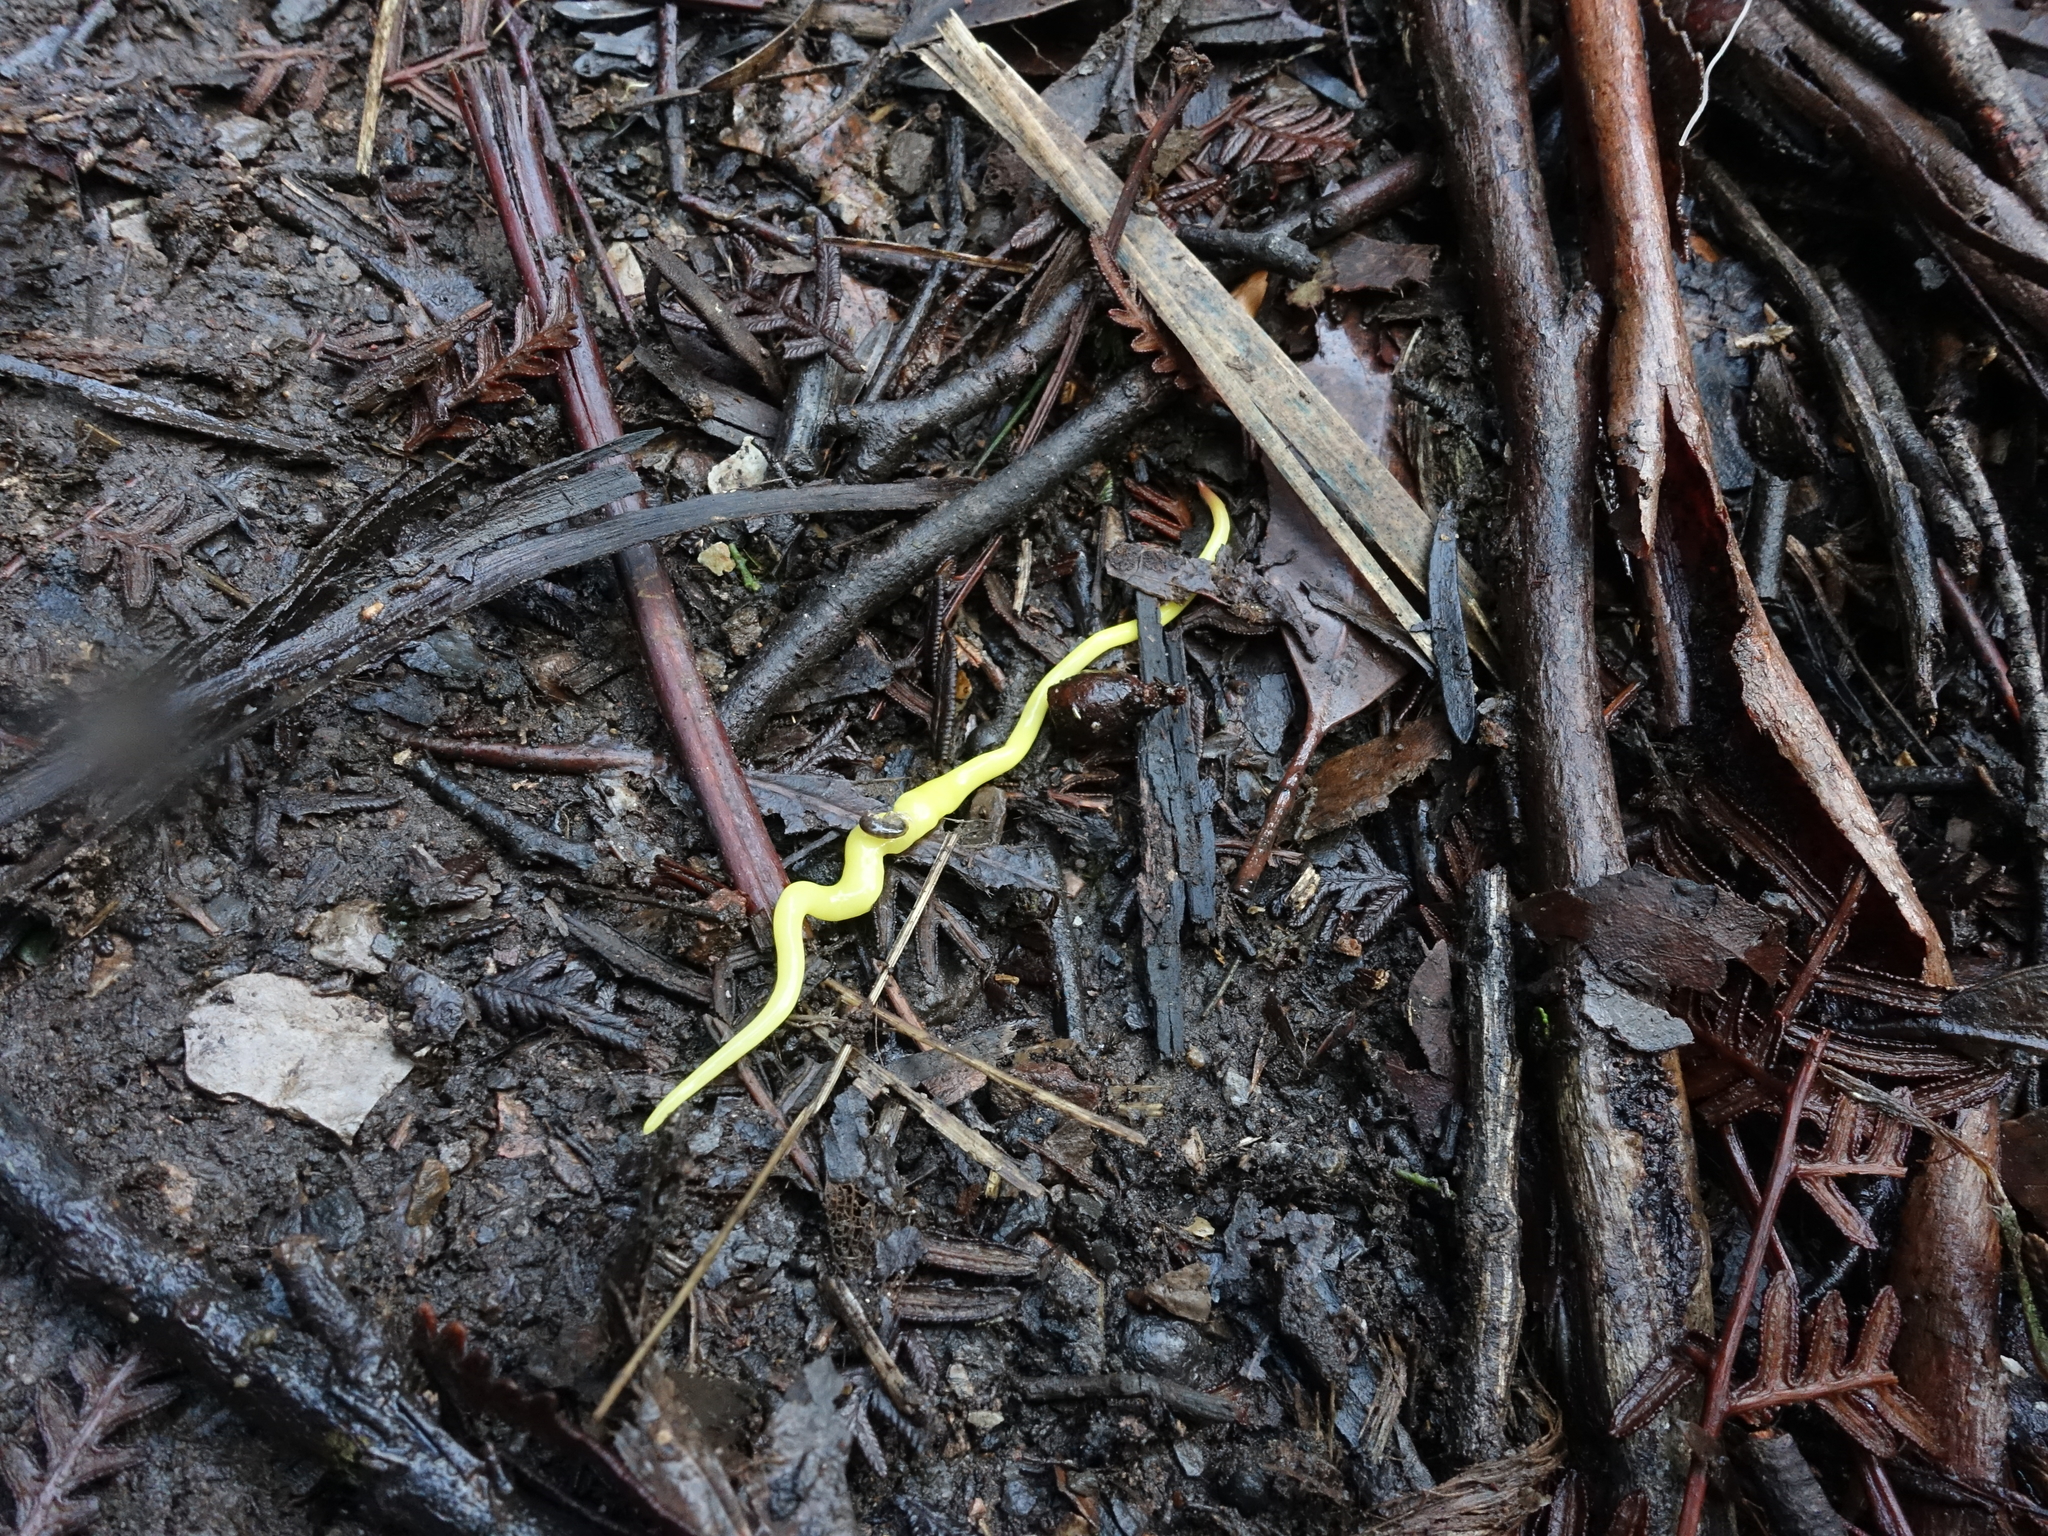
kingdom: Animalia
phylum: Platyhelminthes
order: Tricladida
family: Geoplanidae
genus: Fletchamia
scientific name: Fletchamia sugdeni
